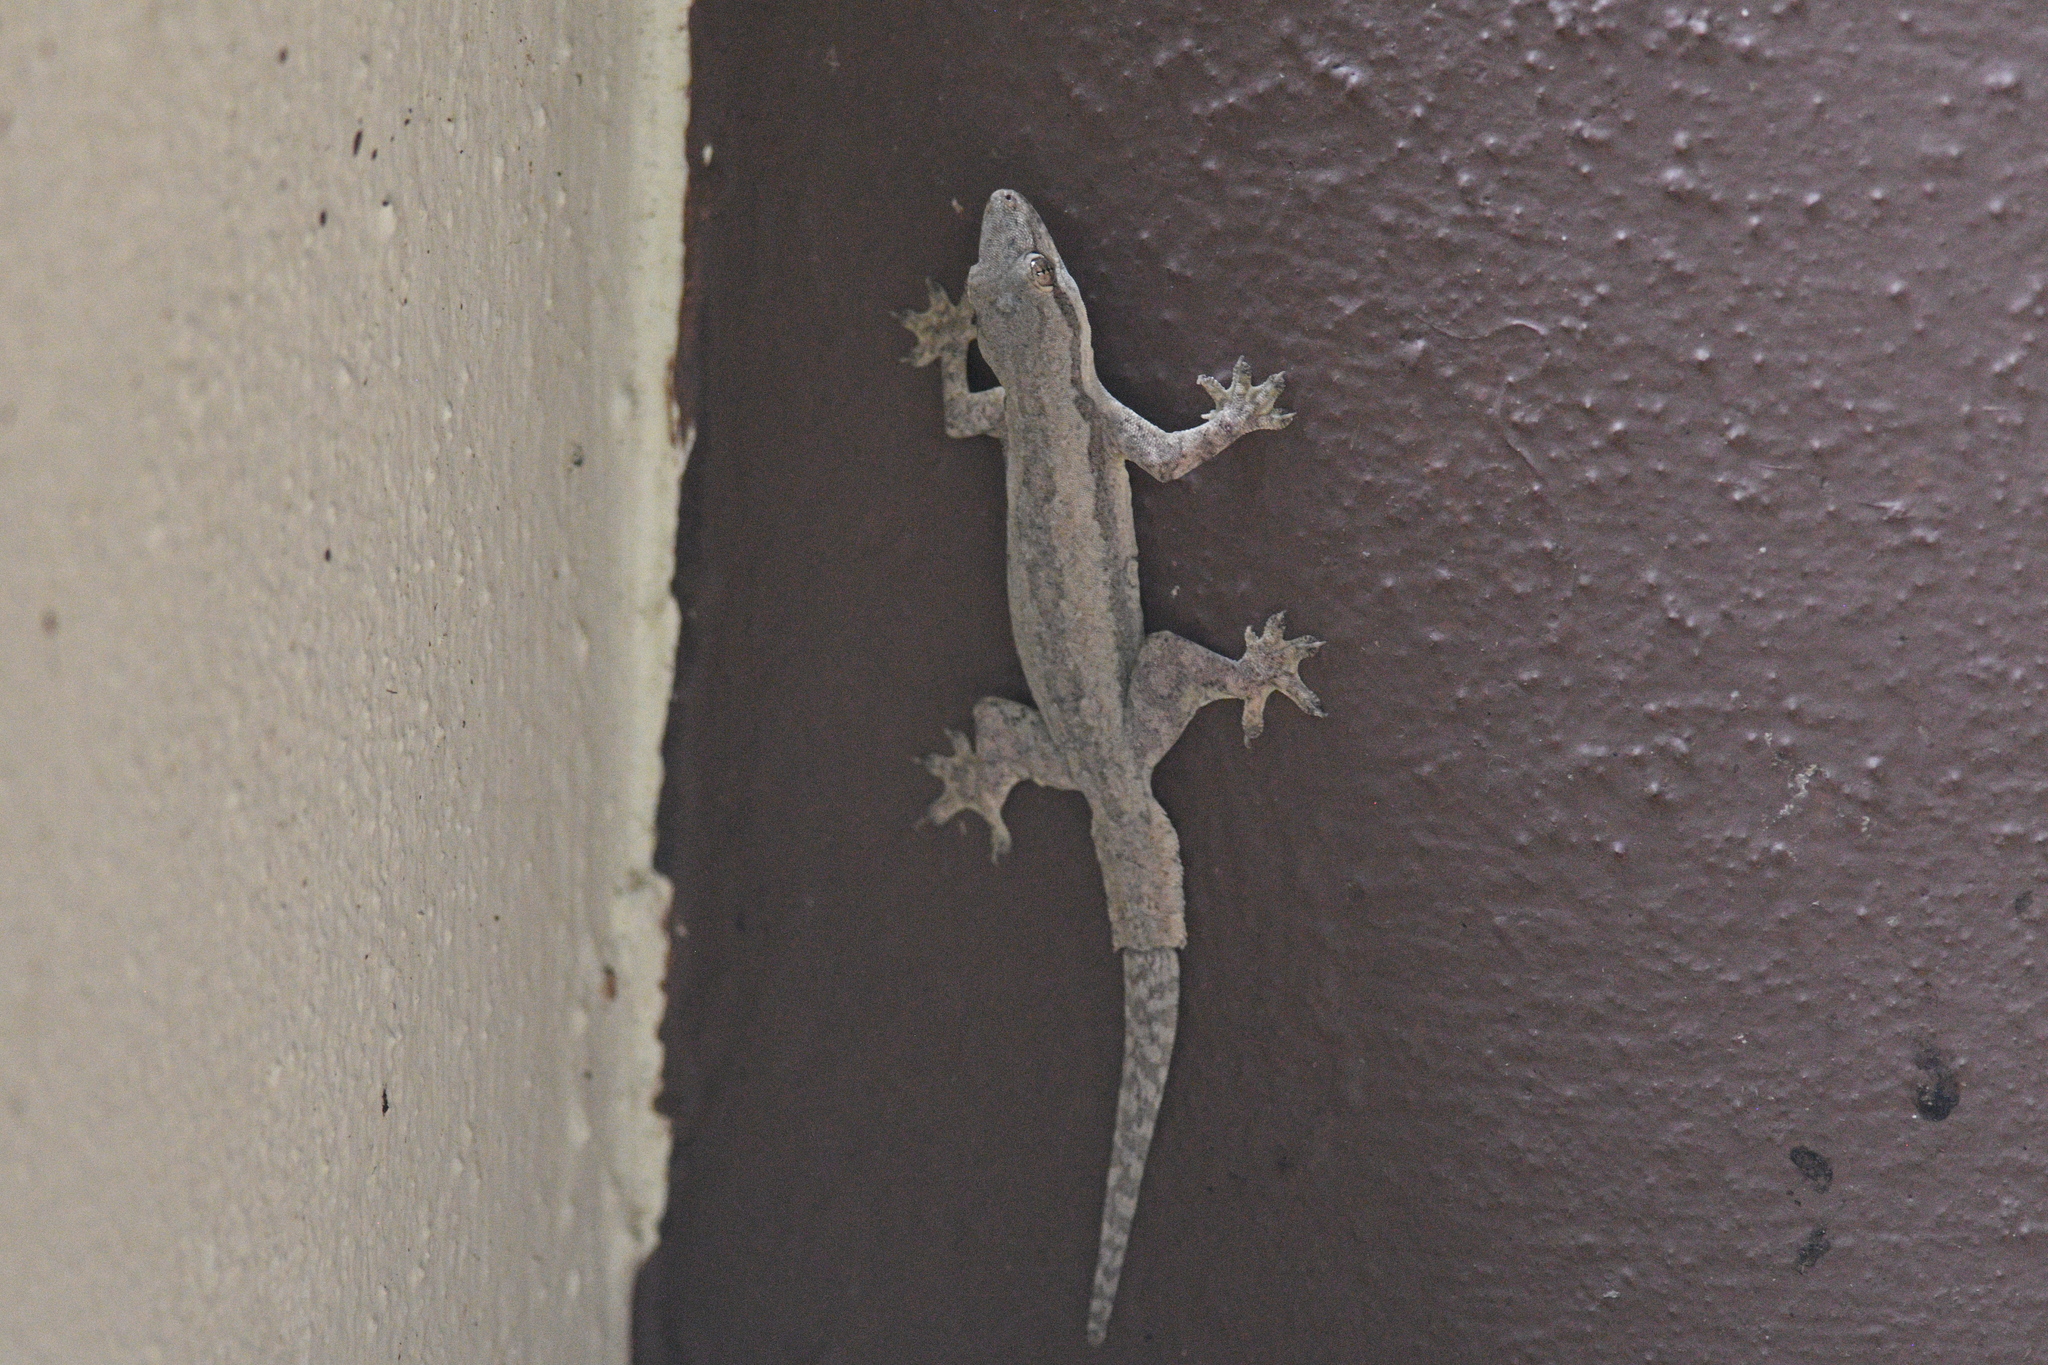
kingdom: Animalia
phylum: Chordata
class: Squamata
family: Gekkonidae
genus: Hemidactylus
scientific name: Hemidactylus platyurus
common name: Flat-tailed house gecko
